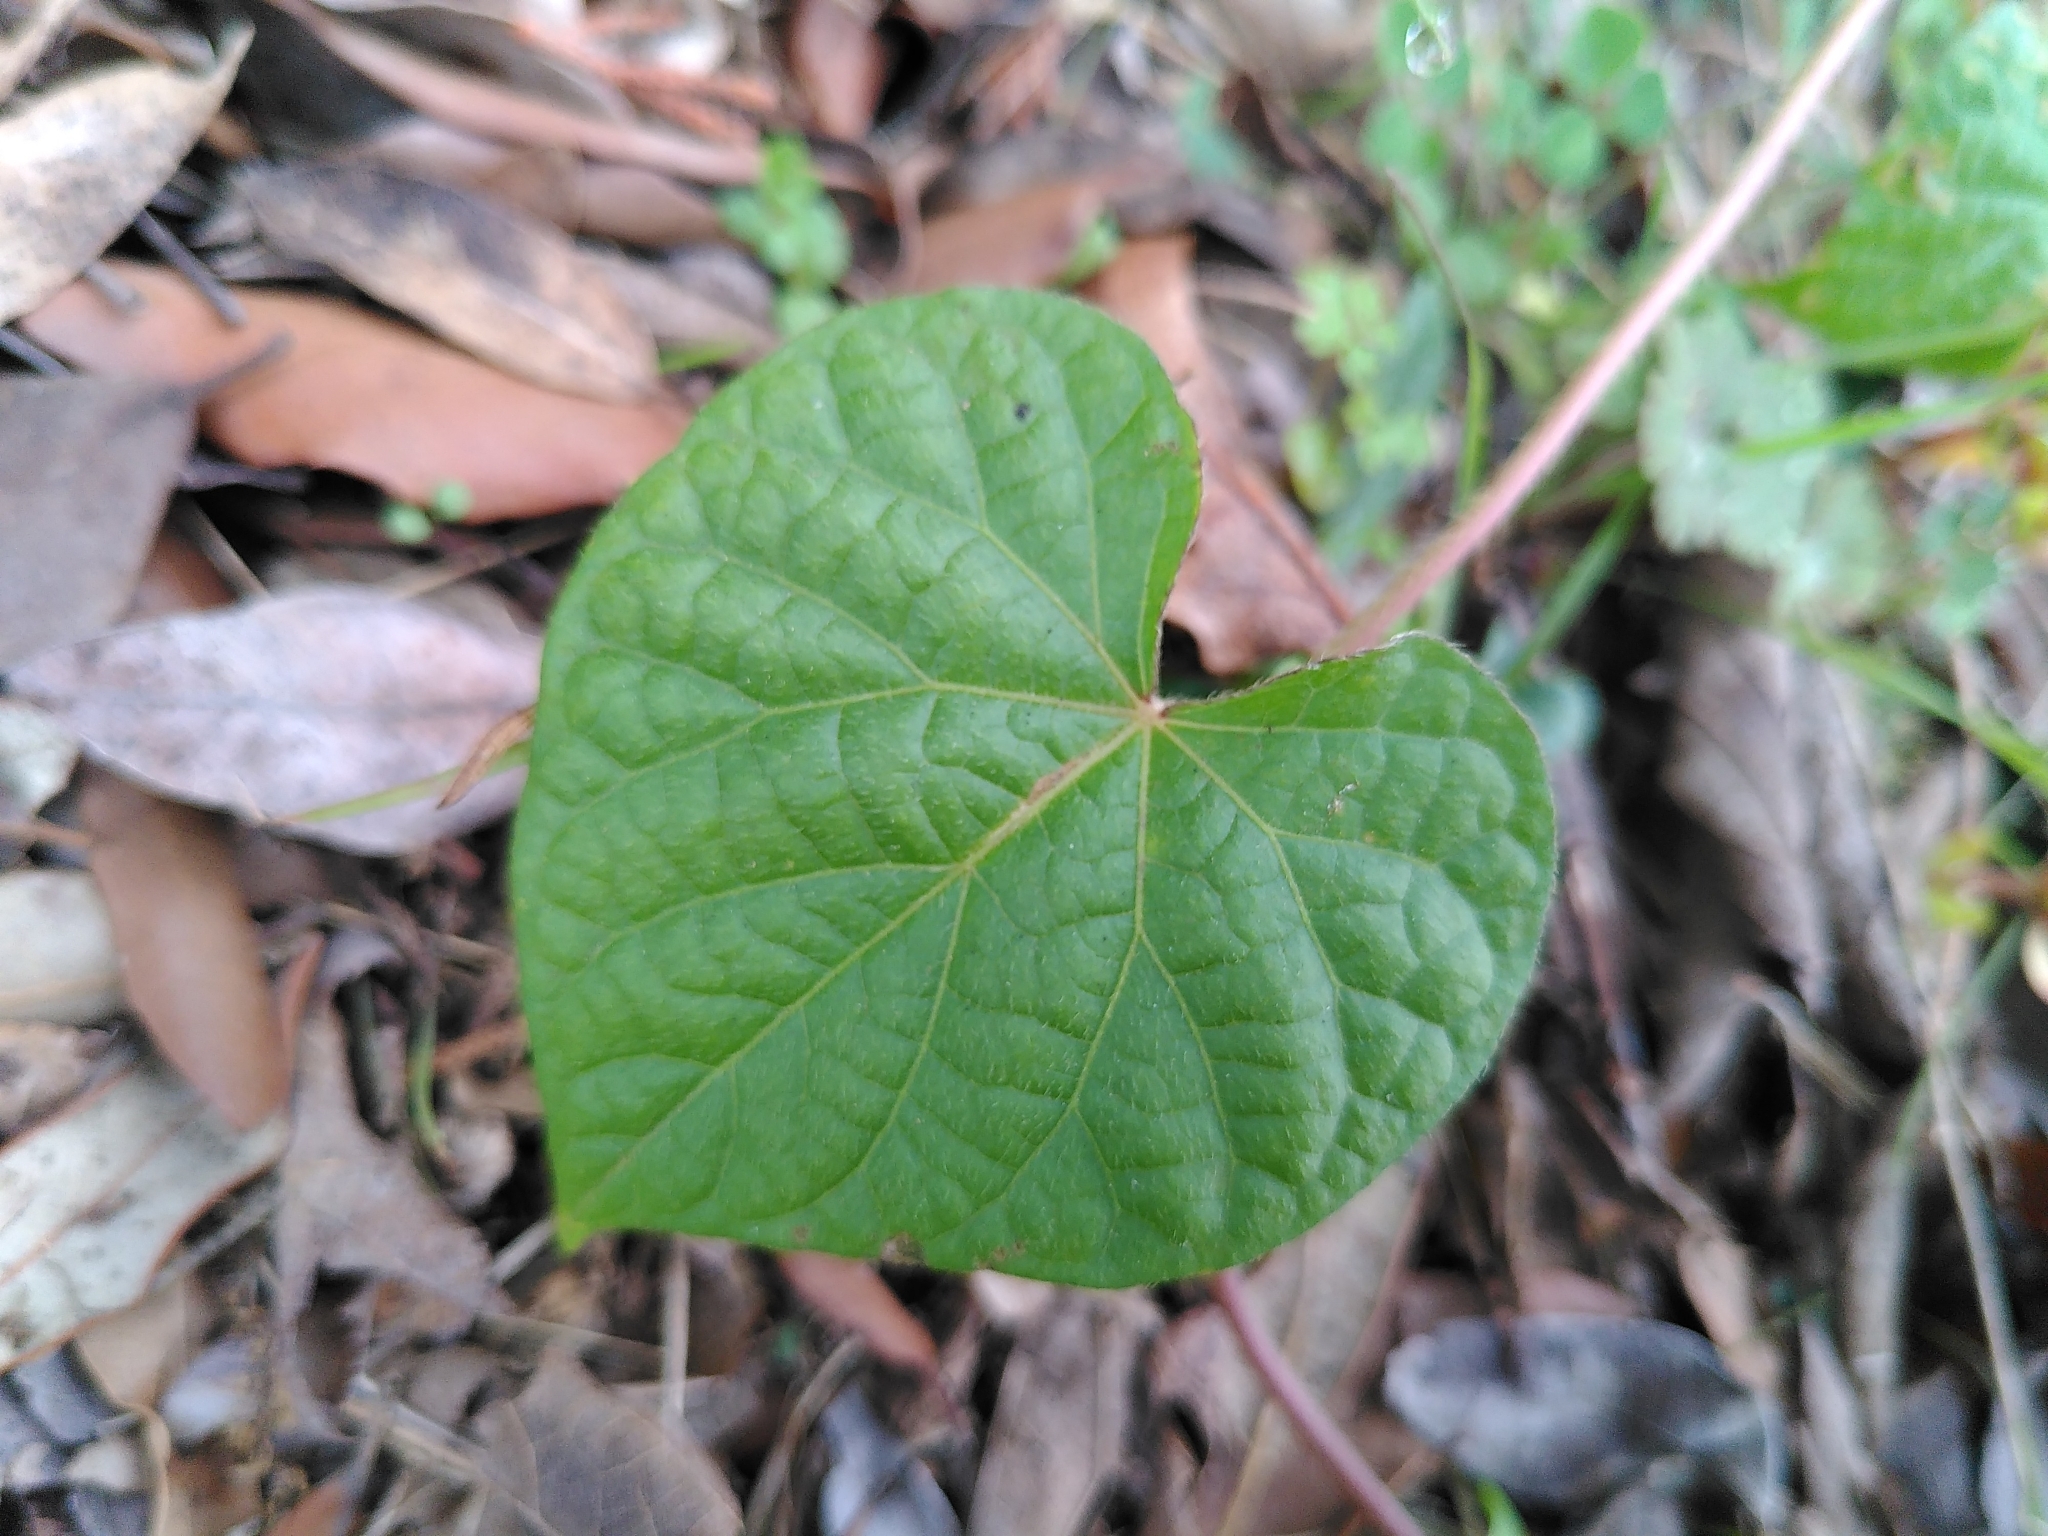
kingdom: Plantae
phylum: Tracheophyta
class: Magnoliopsida
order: Solanales
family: Convolvulaceae
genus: Ipomoea
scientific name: Ipomoea purpurea
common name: Common morning-glory
